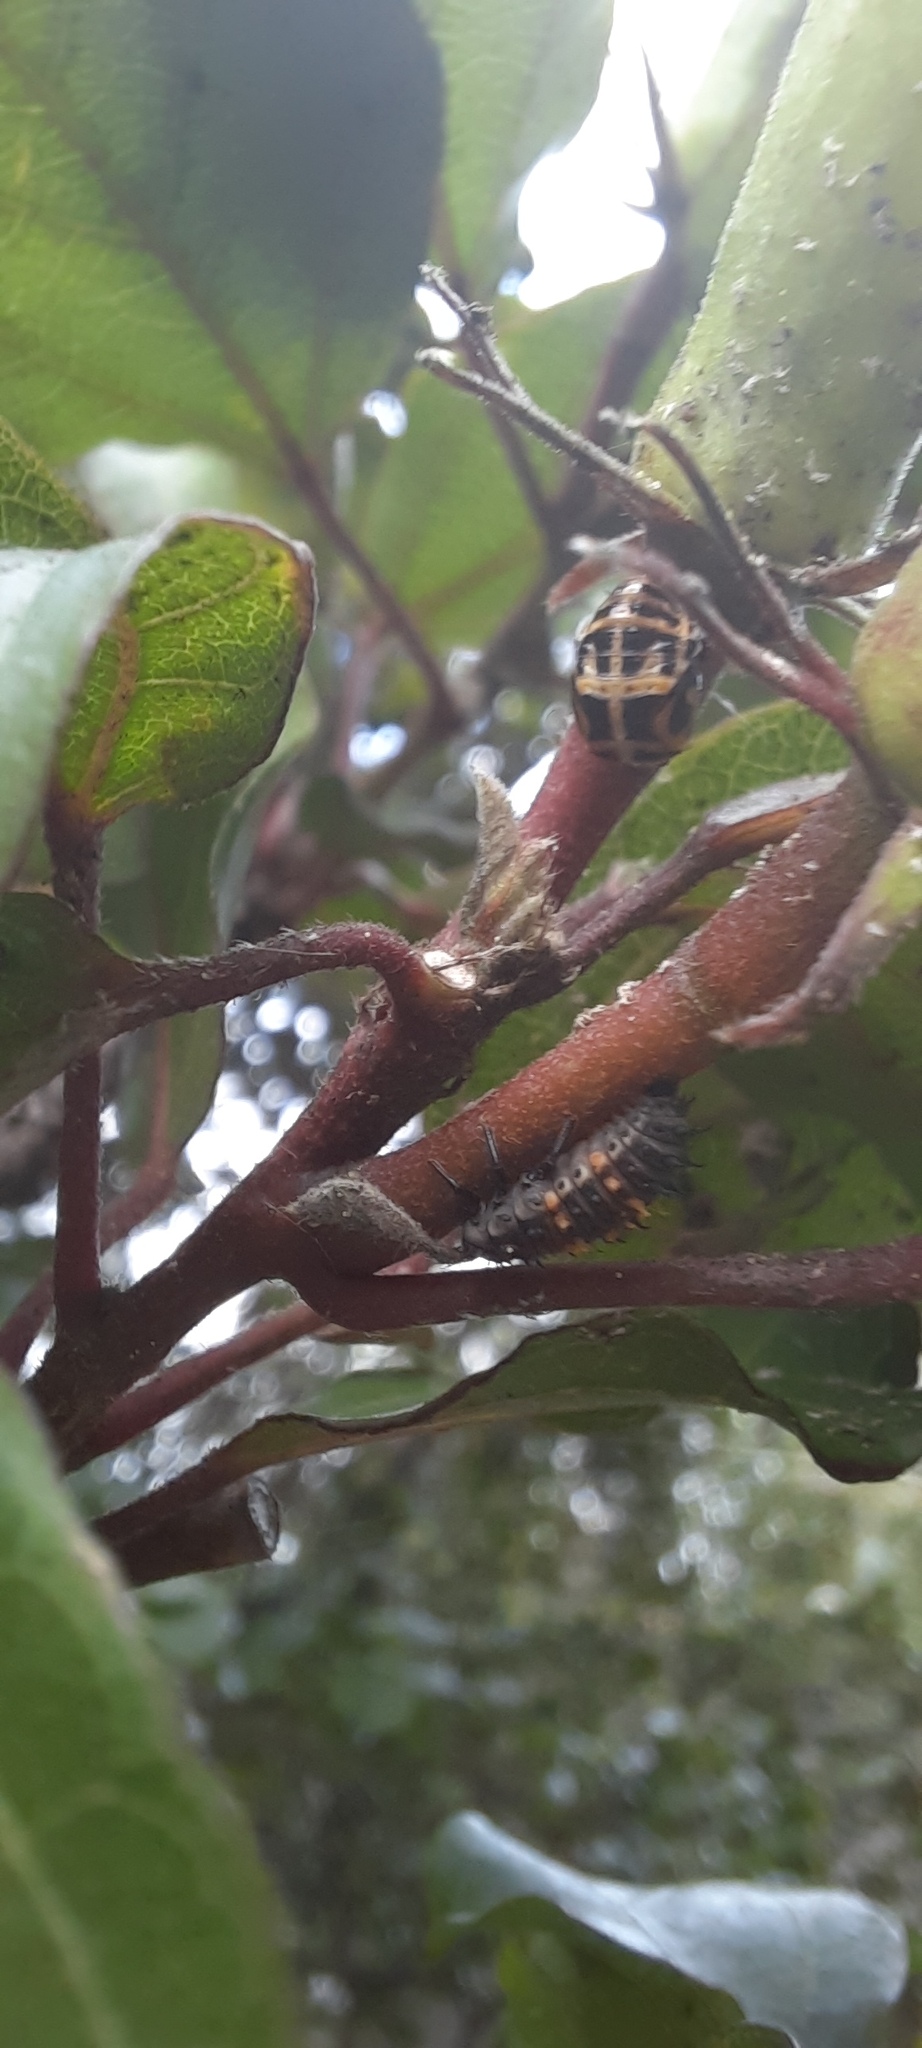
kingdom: Animalia
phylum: Arthropoda
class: Insecta
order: Coleoptera
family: Coccinellidae
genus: Harmonia
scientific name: Harmonia conformis
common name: Common spotted ladybird beetle
